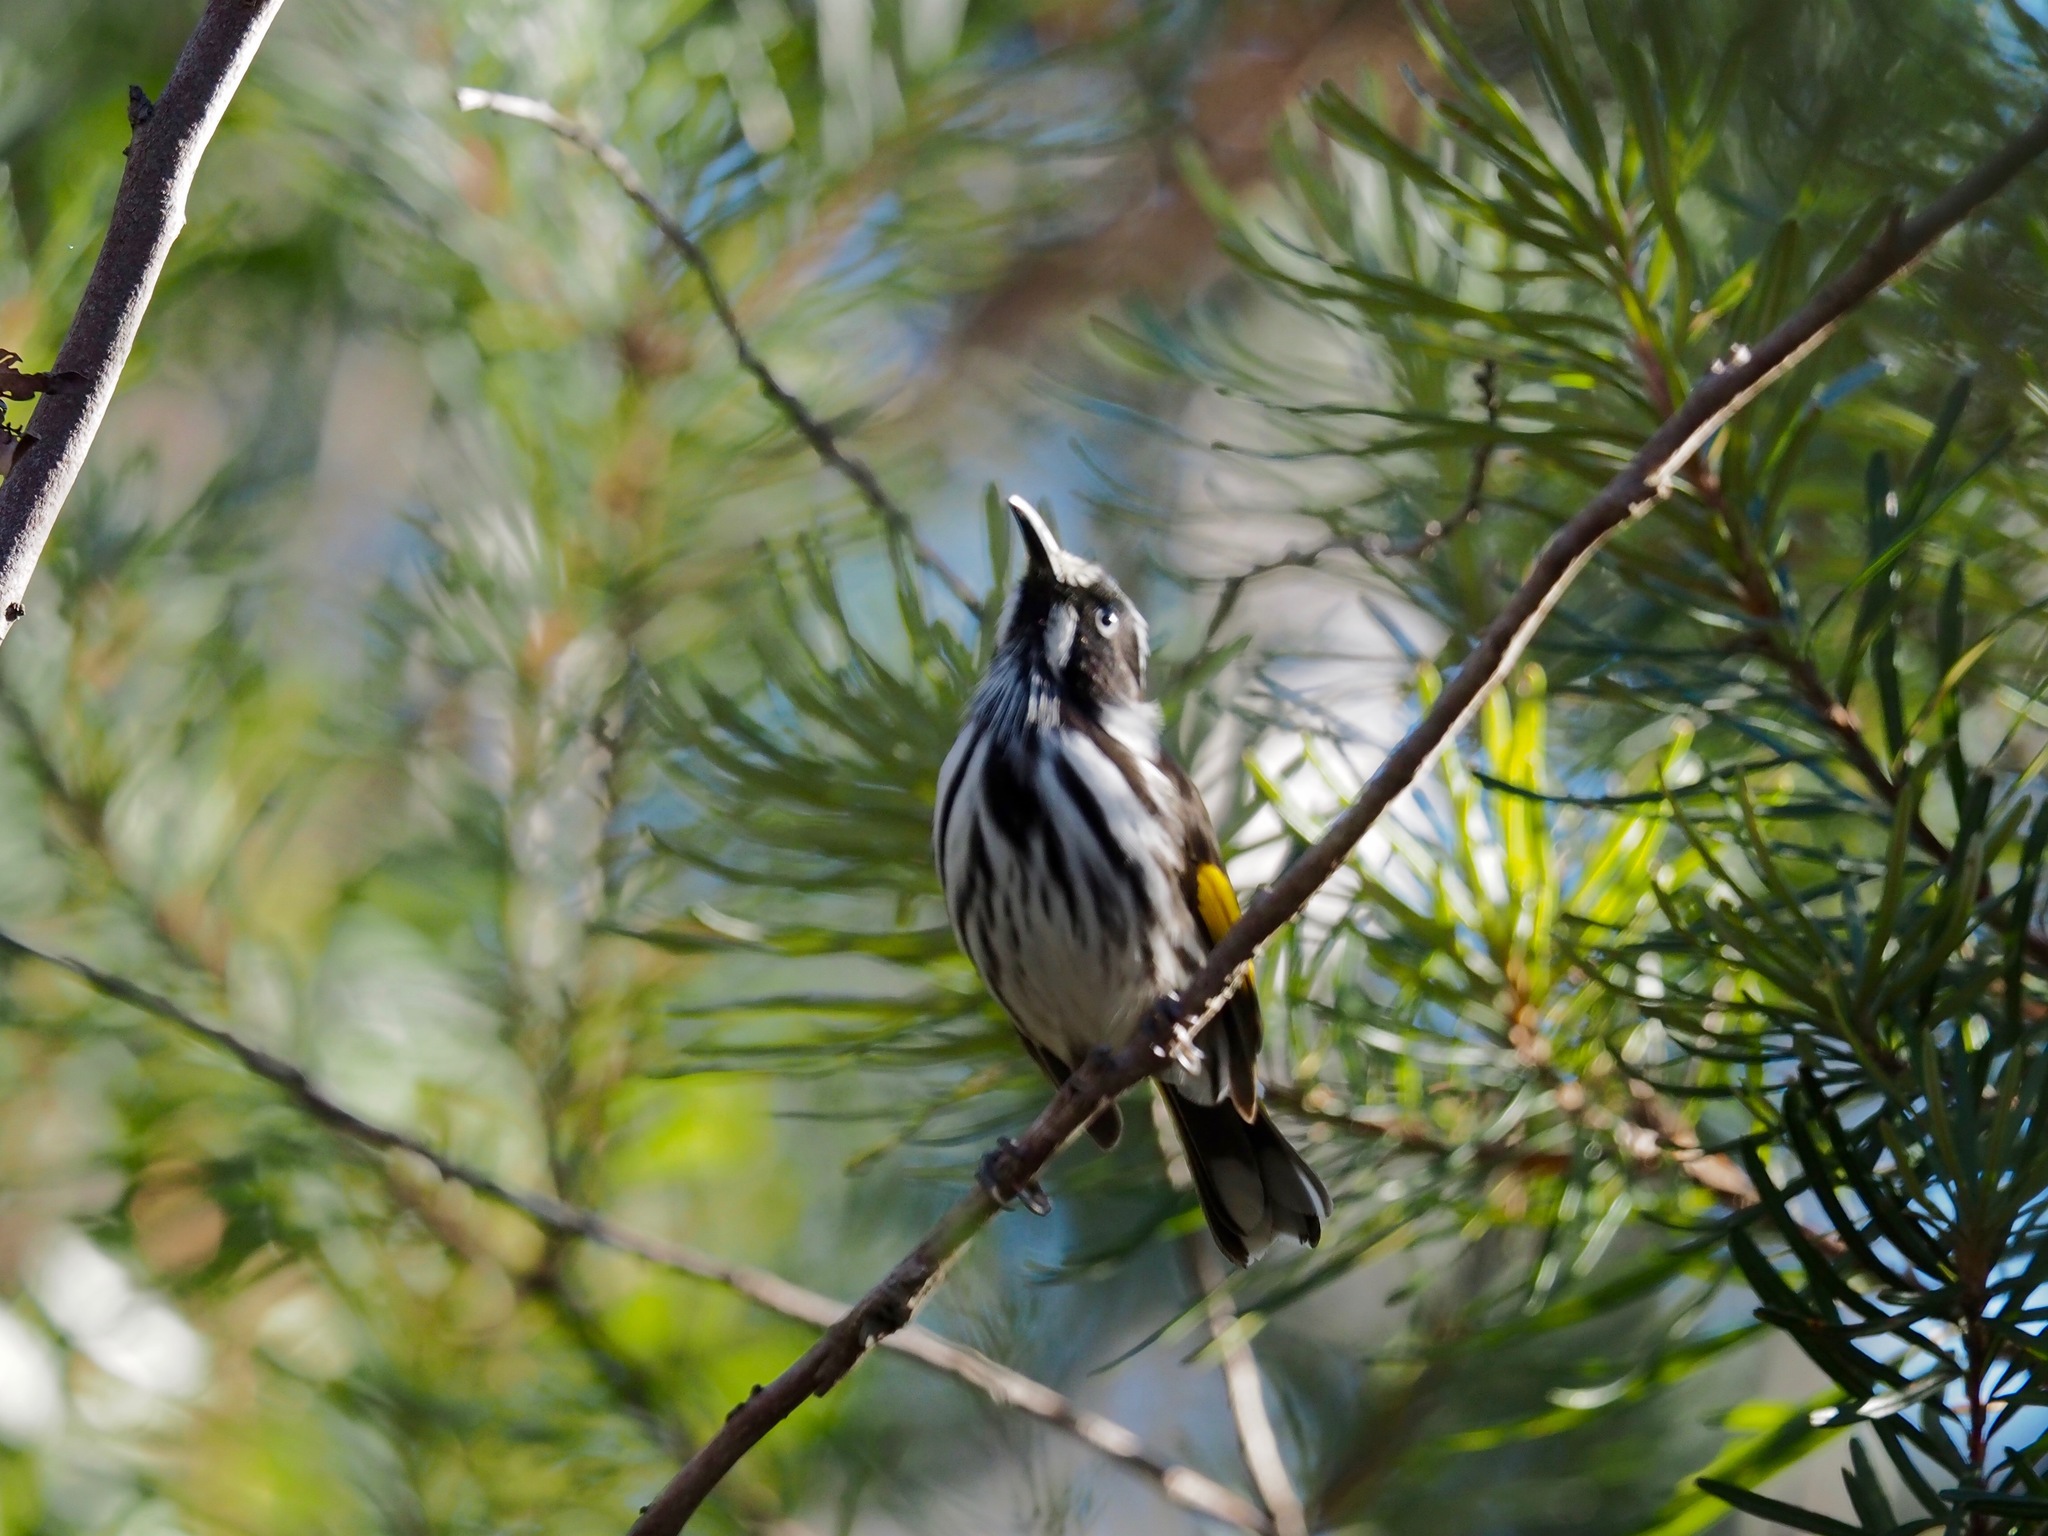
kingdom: Animalia
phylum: Chordata
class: Aves
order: Passeriformes
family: Meliphagidae
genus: Phylidonyris
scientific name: Phylidonyris novaehollandiae
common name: New holland honeyeater
